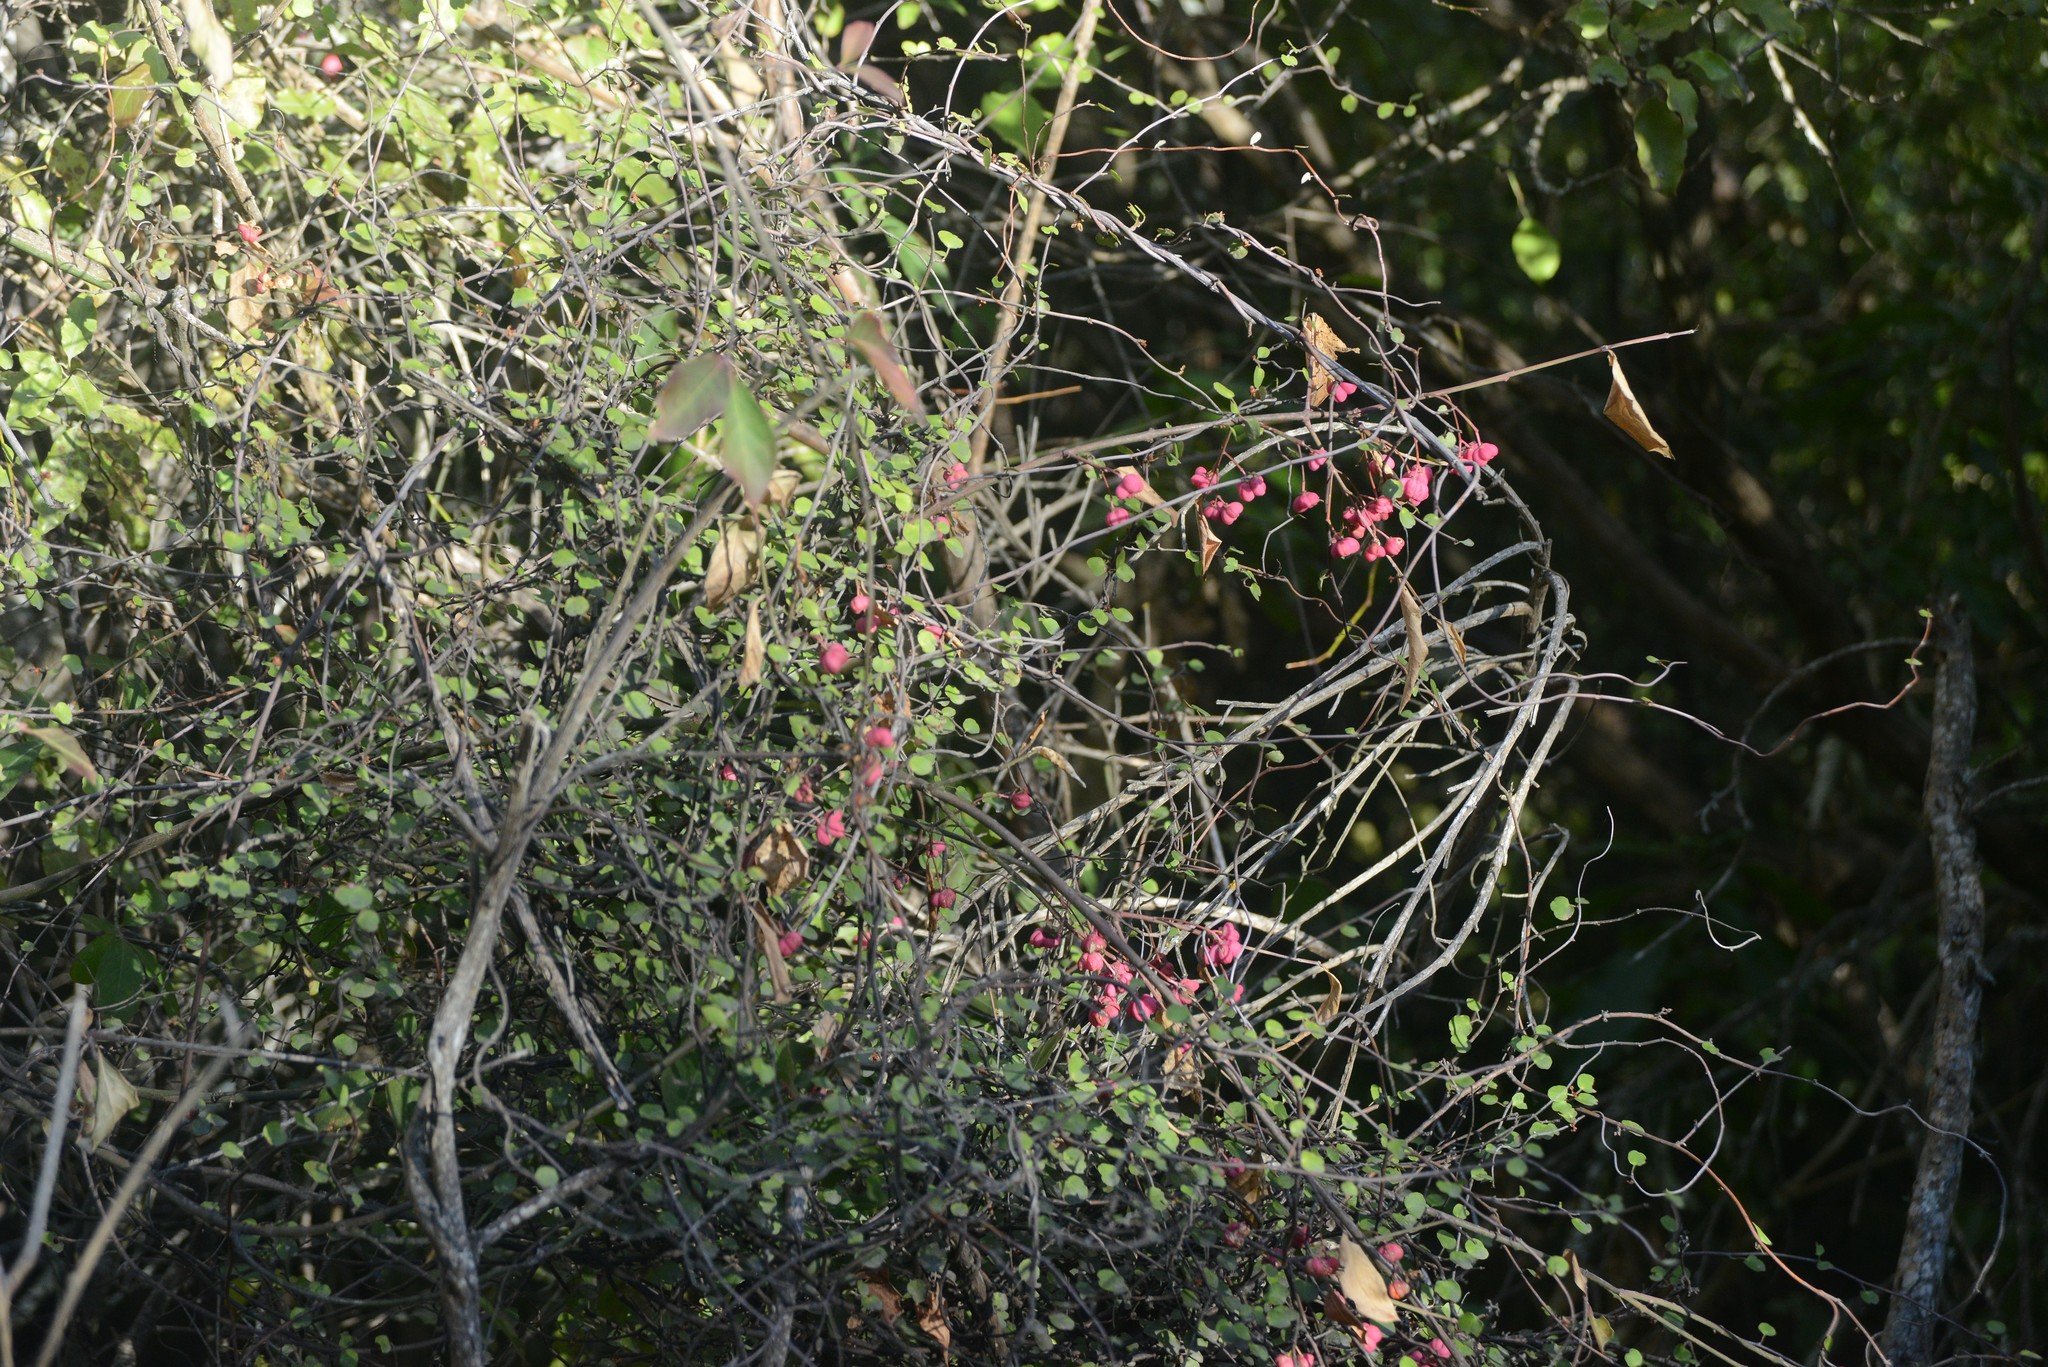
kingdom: Plantae
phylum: Tracheophyta
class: Magnoliopsida
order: Celastrales
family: Celastraceae
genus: Euonymus
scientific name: Euonymus europaeus
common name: Spindle
